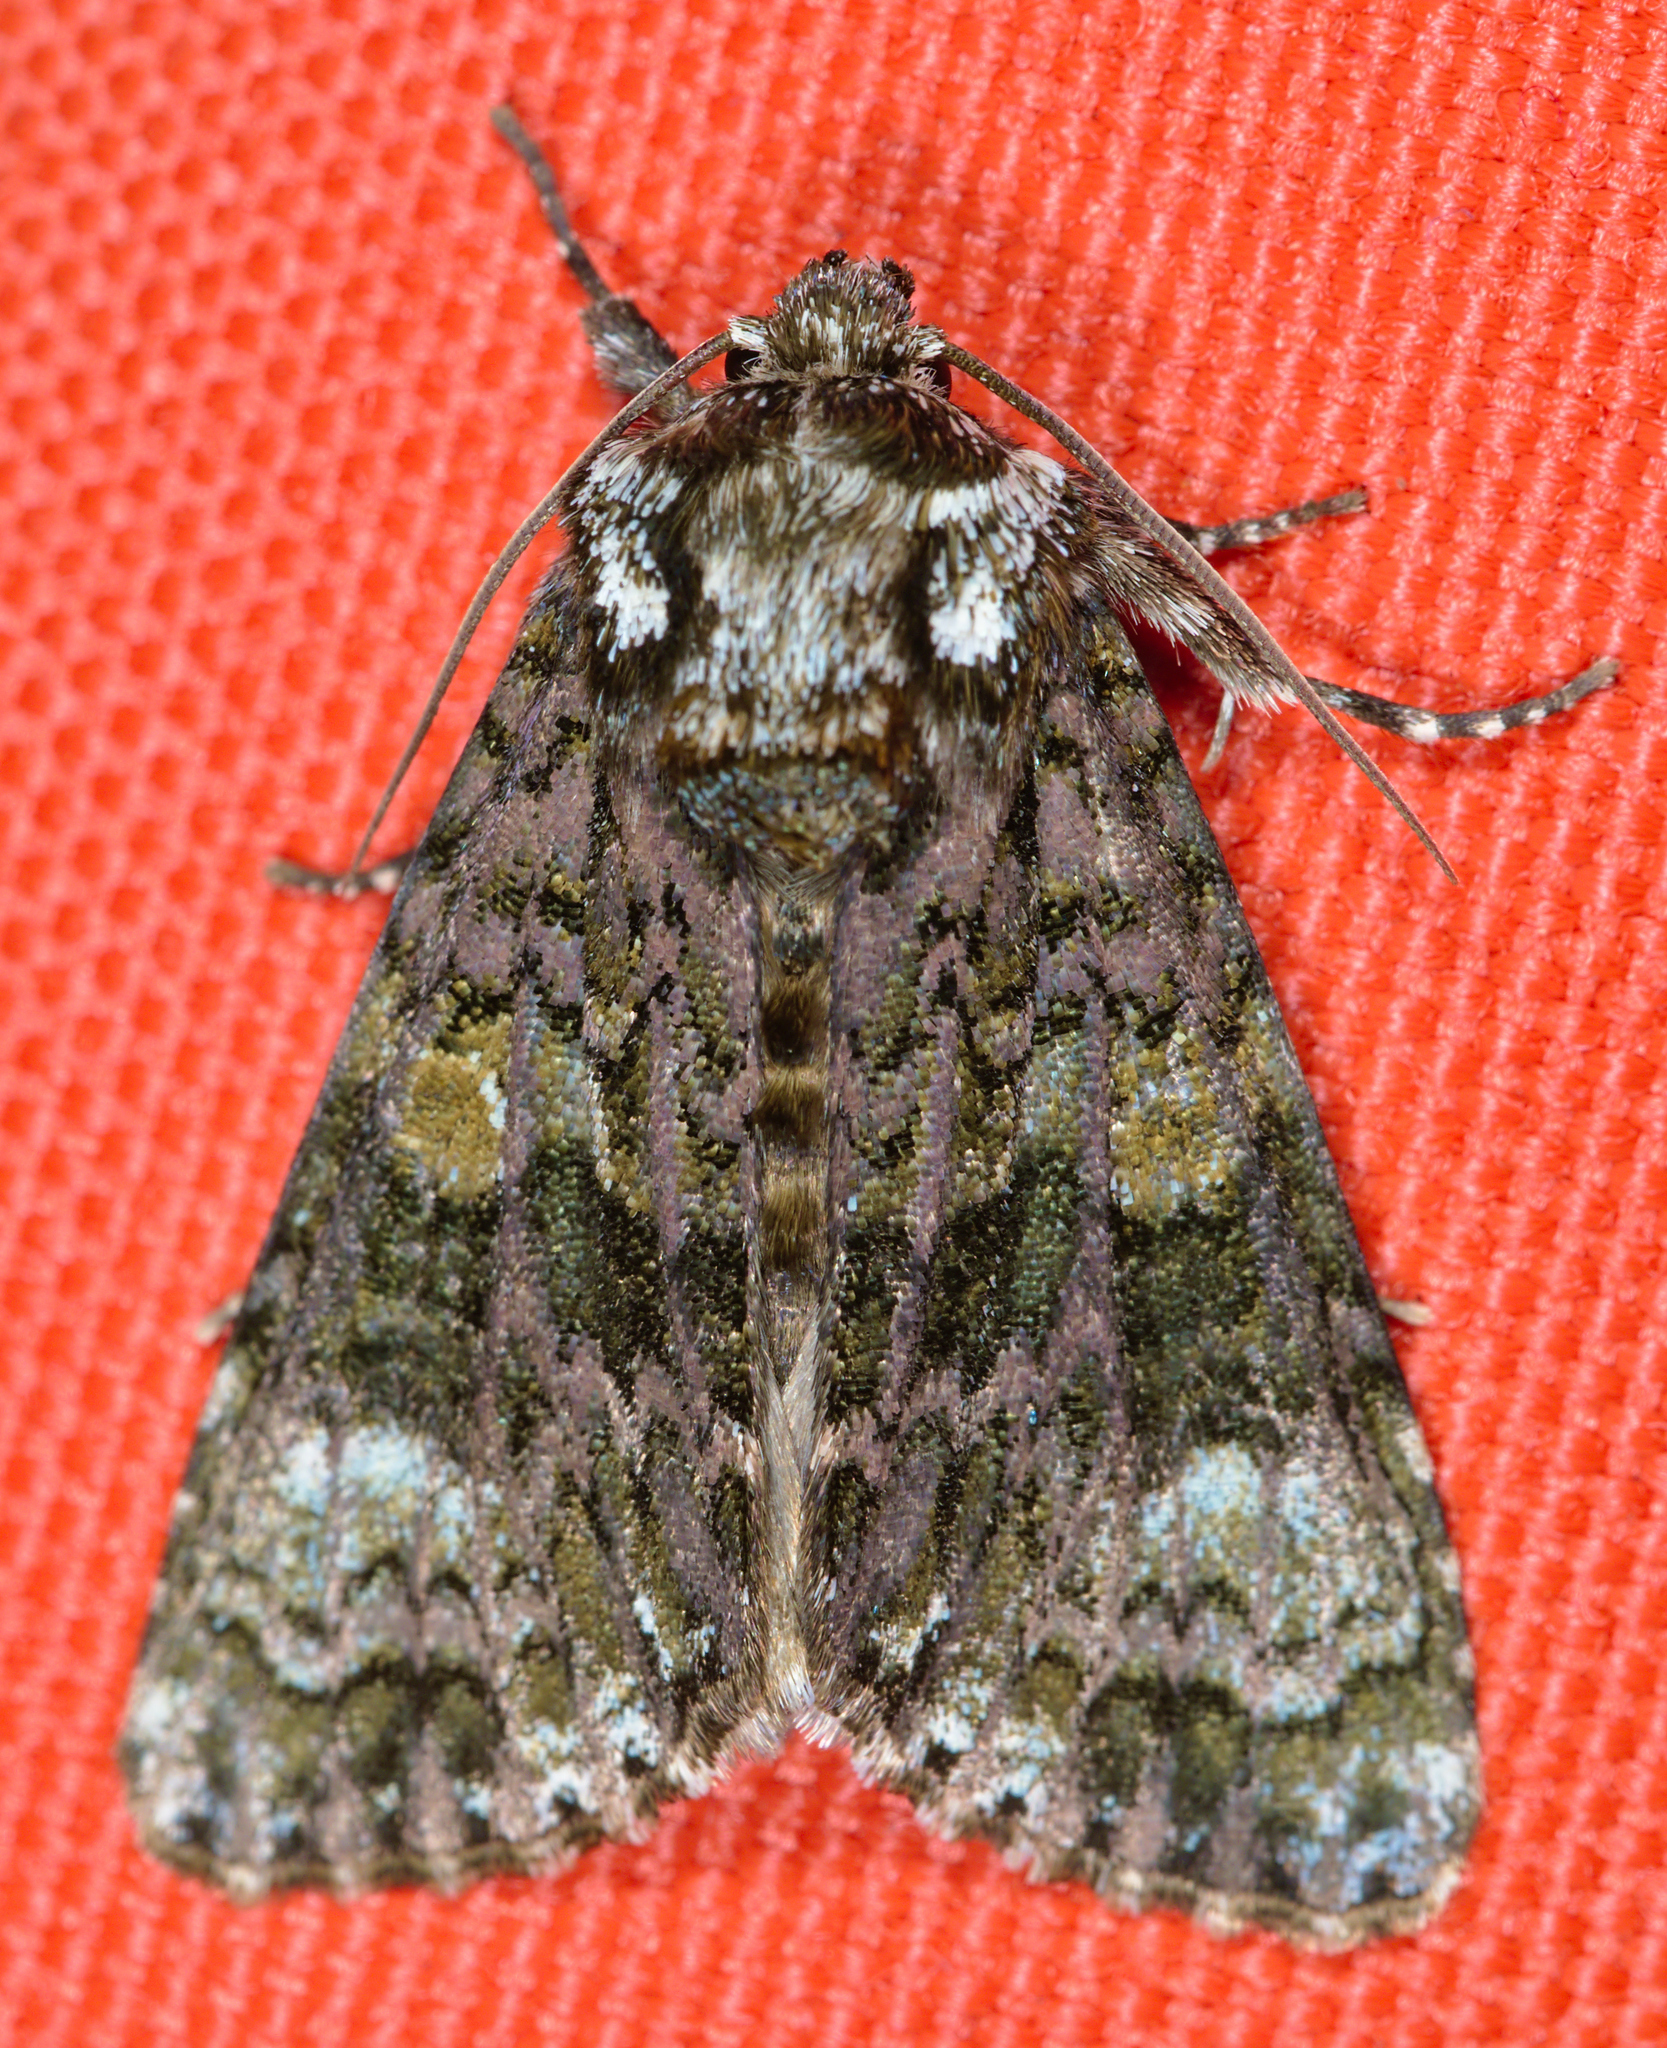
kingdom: Animalia
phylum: Arthropoda
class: Insecta
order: Lepidoptera
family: Noctuidae
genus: Craniophora
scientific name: Craniophora ligustri
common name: Coronet
